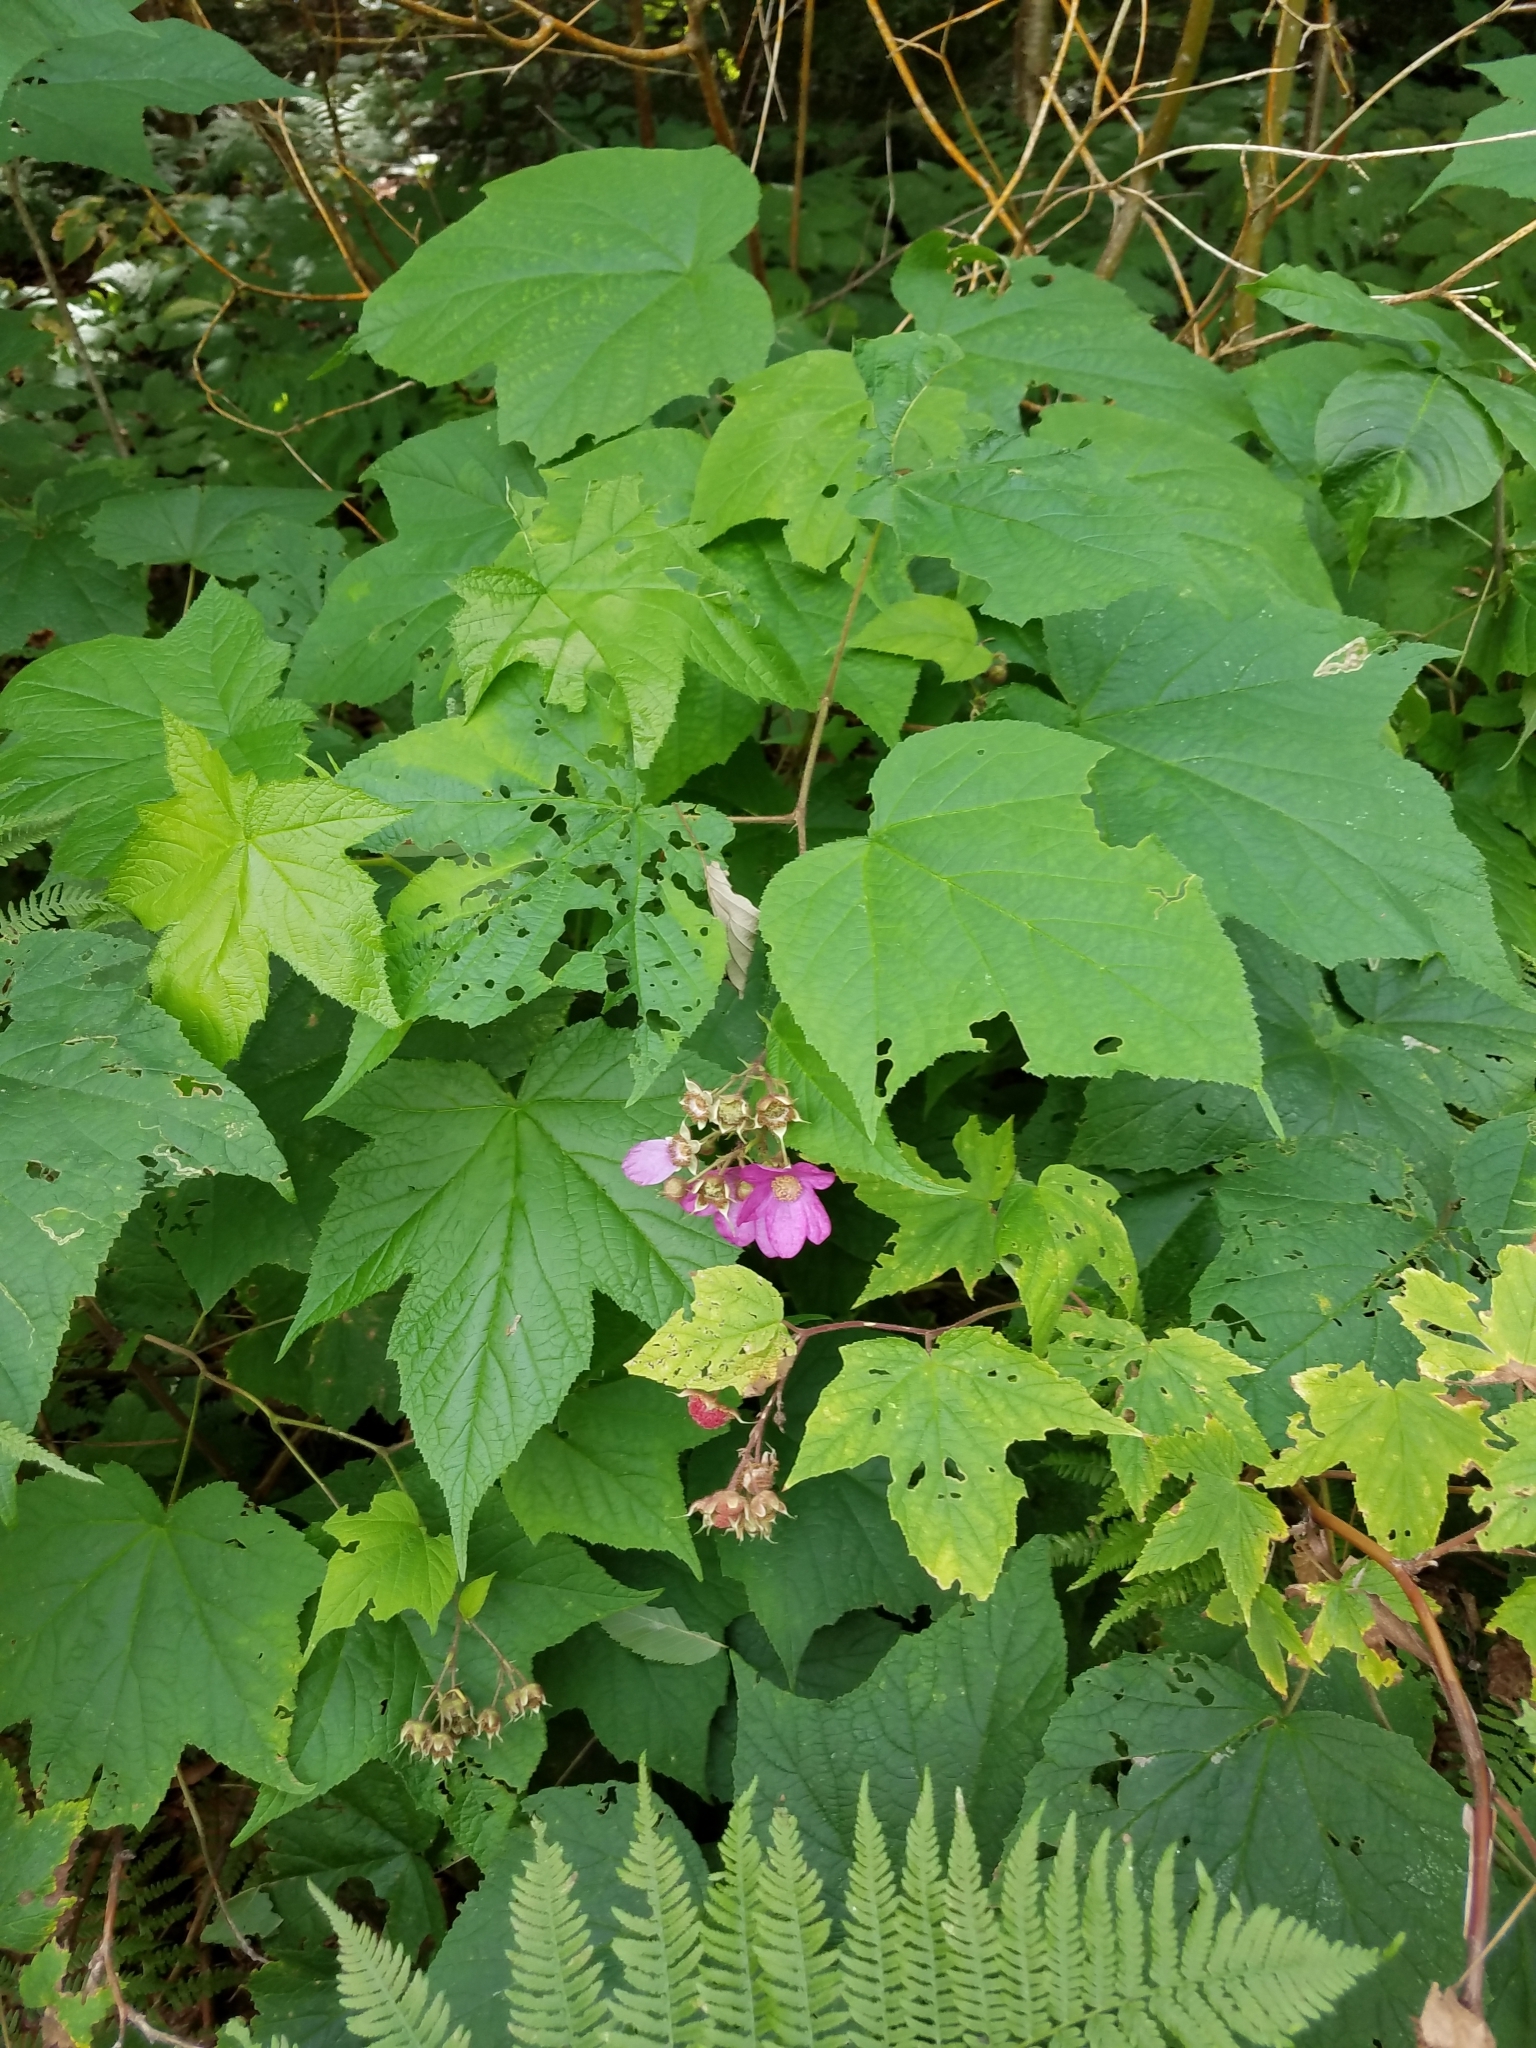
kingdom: Plantae
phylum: Tracheophyta
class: Magnoliopsida
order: Rosales
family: Rosaceae
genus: Rubus
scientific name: Rubus odoratus
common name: Purple-flowered raspberry
